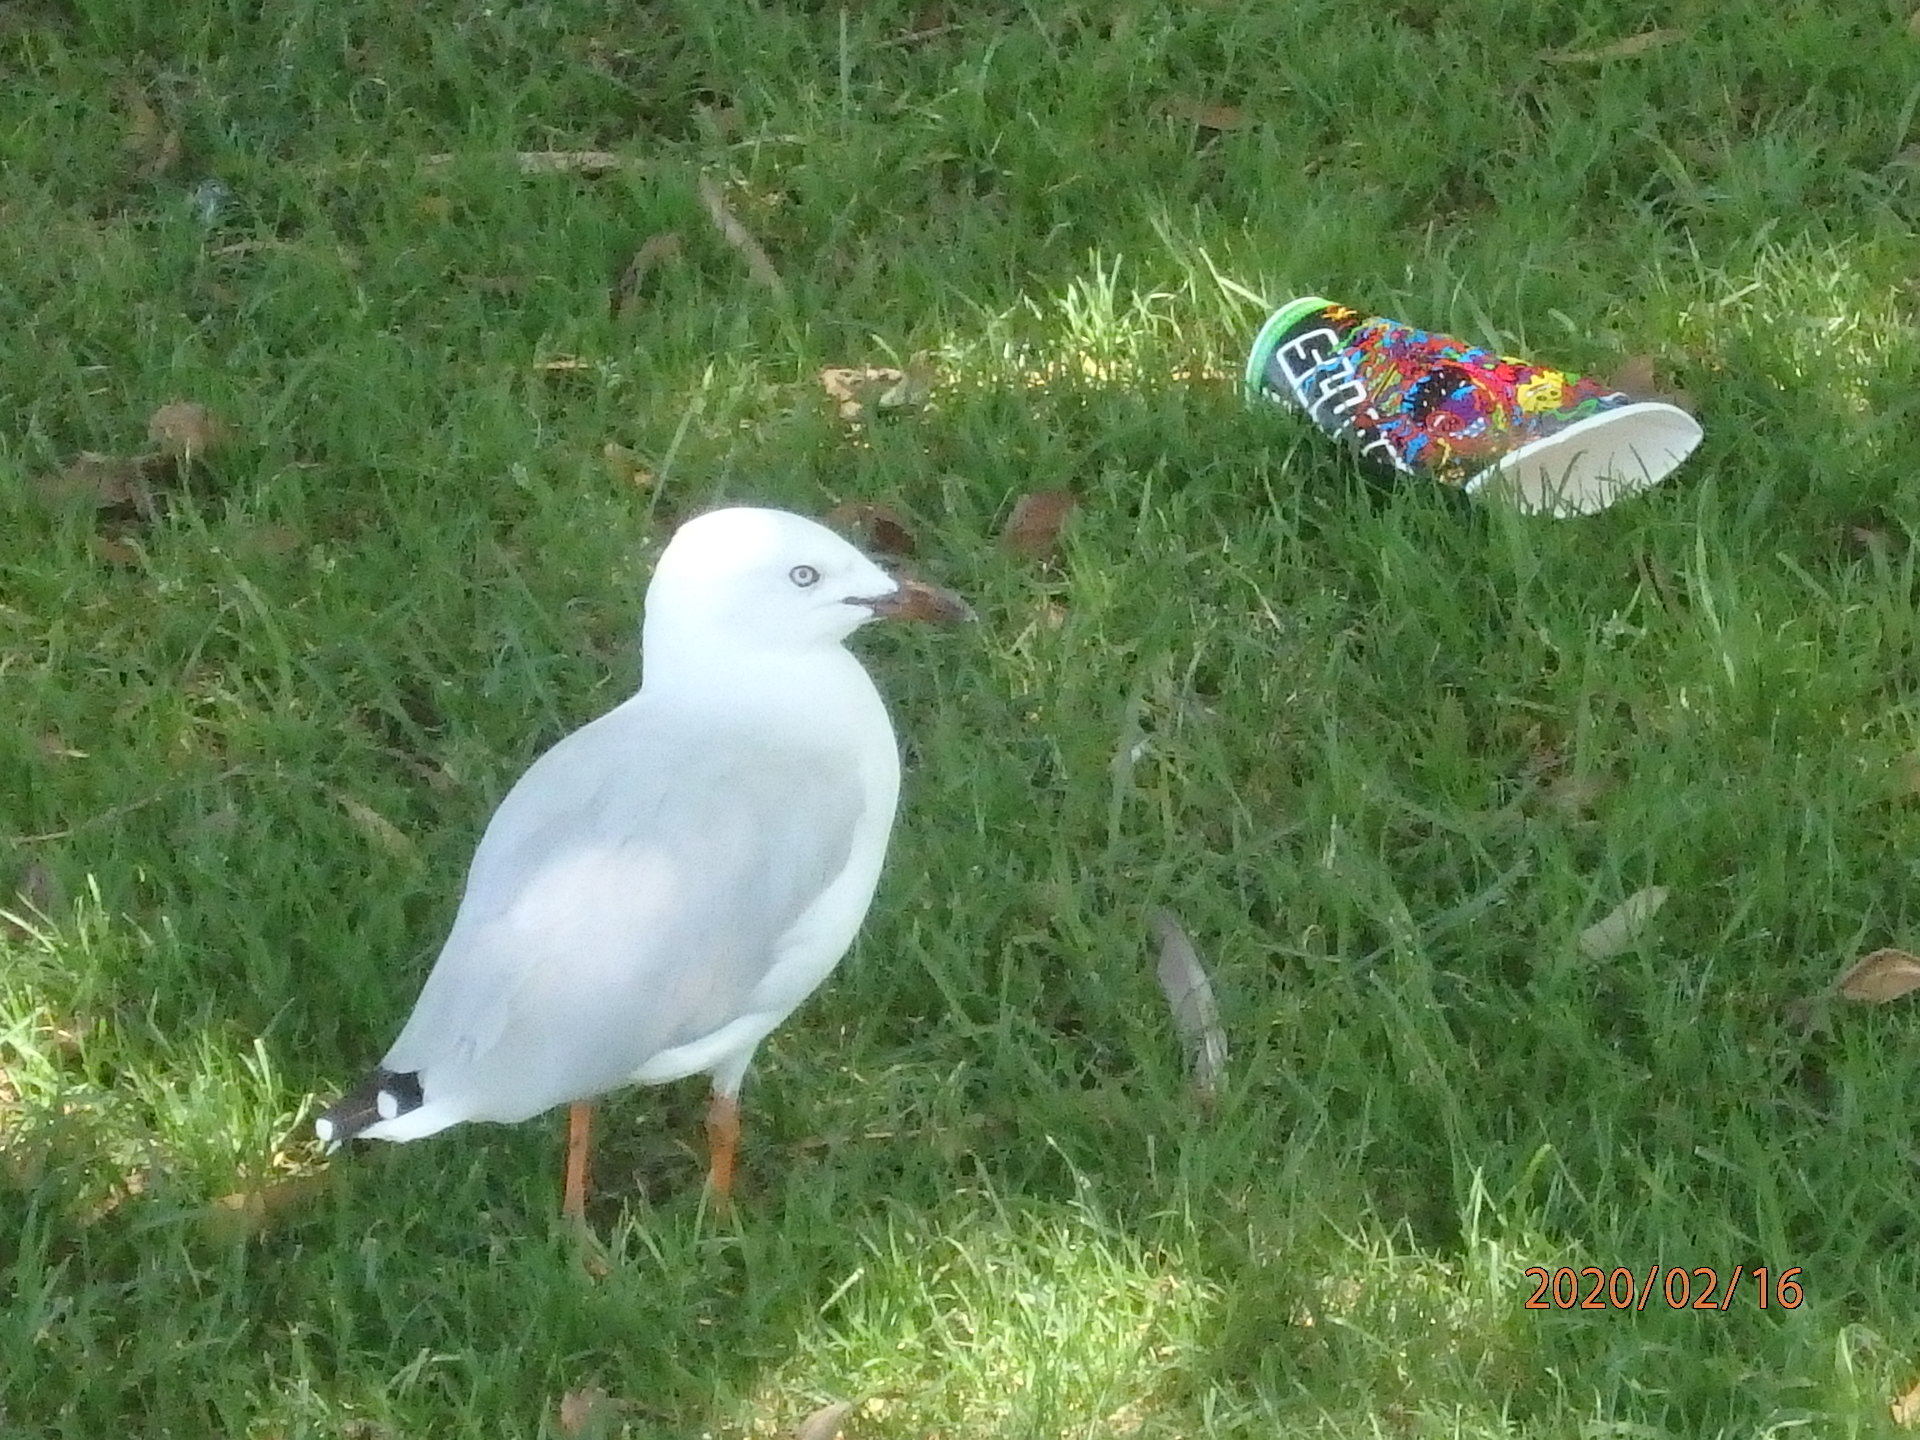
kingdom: Animalia
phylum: Chordata
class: Aves
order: Charadriiformes
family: Laridae
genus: Chroicocephalus
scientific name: Chroicocephalus novaehollandiae
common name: Silver gull
